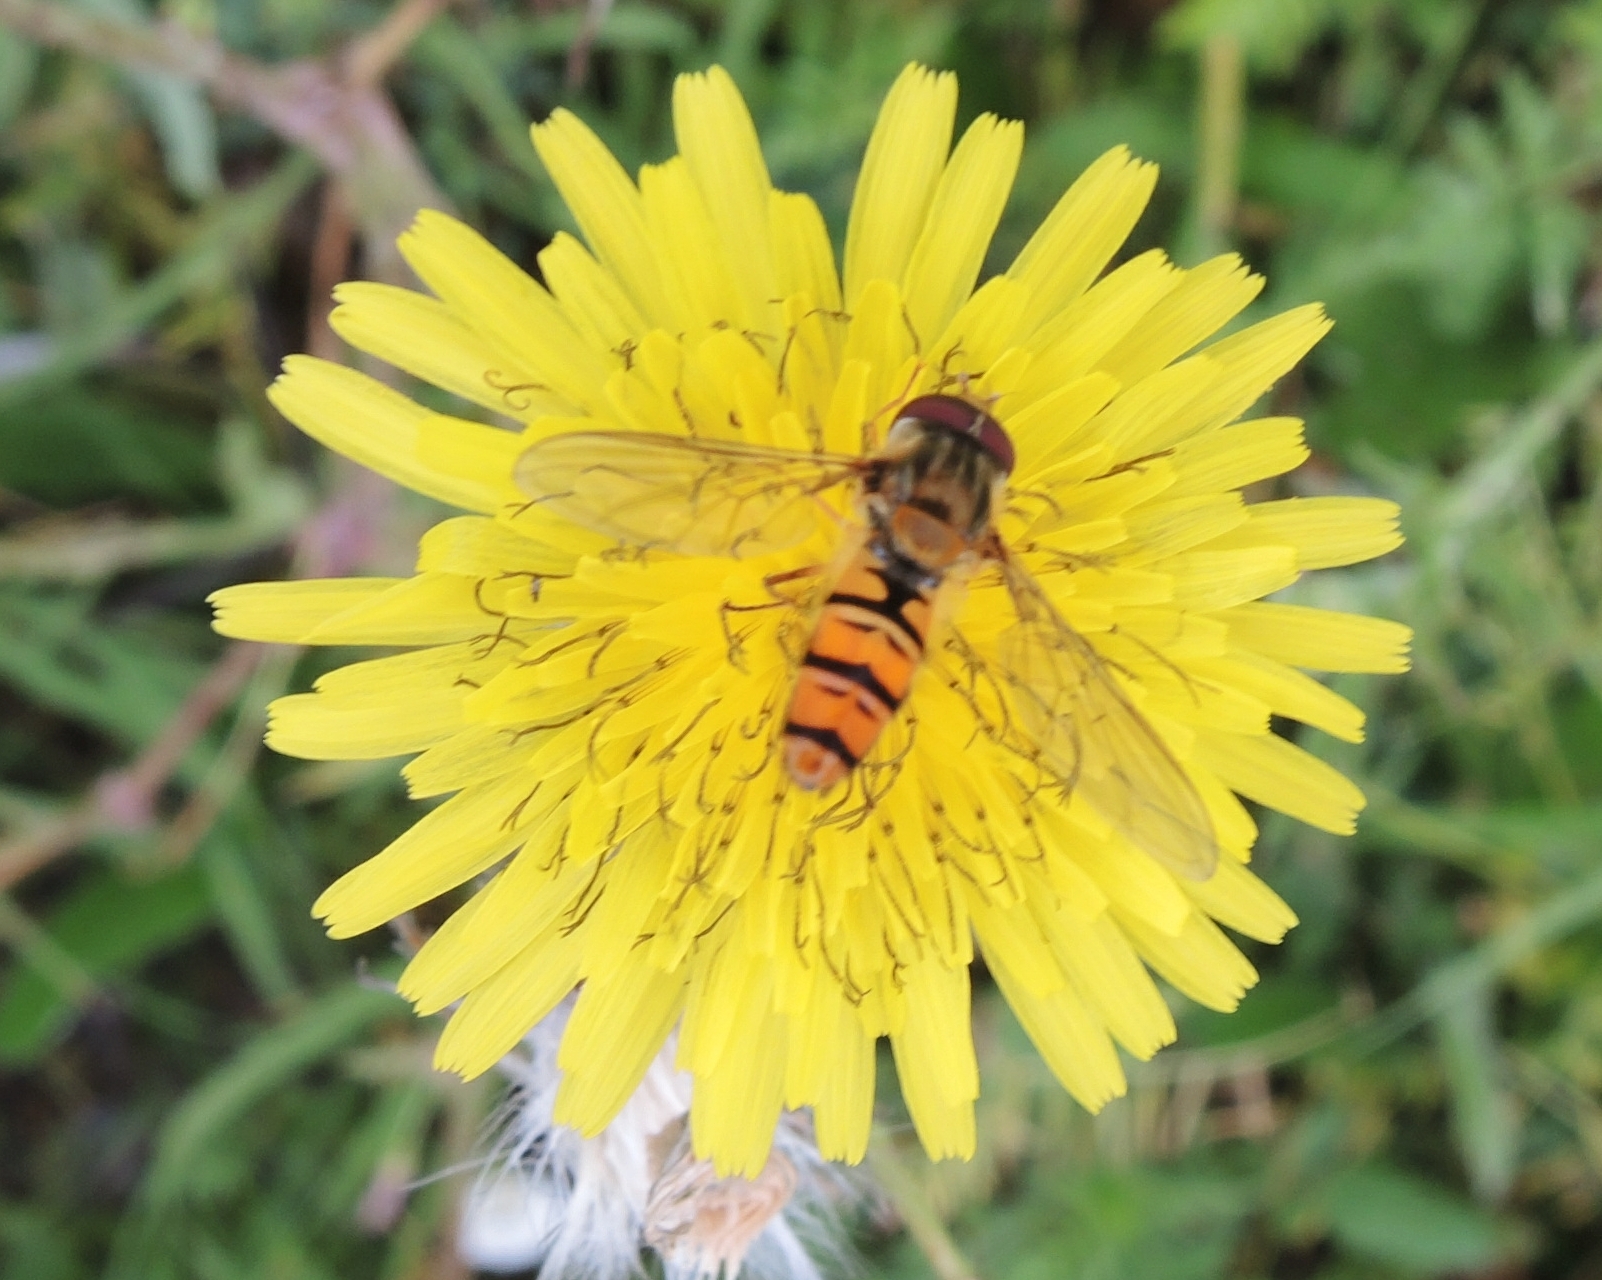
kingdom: Animalia
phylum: Arthropoda
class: Insecta
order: Diptera
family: Syrphidae
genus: Episyrphus
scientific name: Episyrphus balteatus
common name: Marmalade hoverfly
